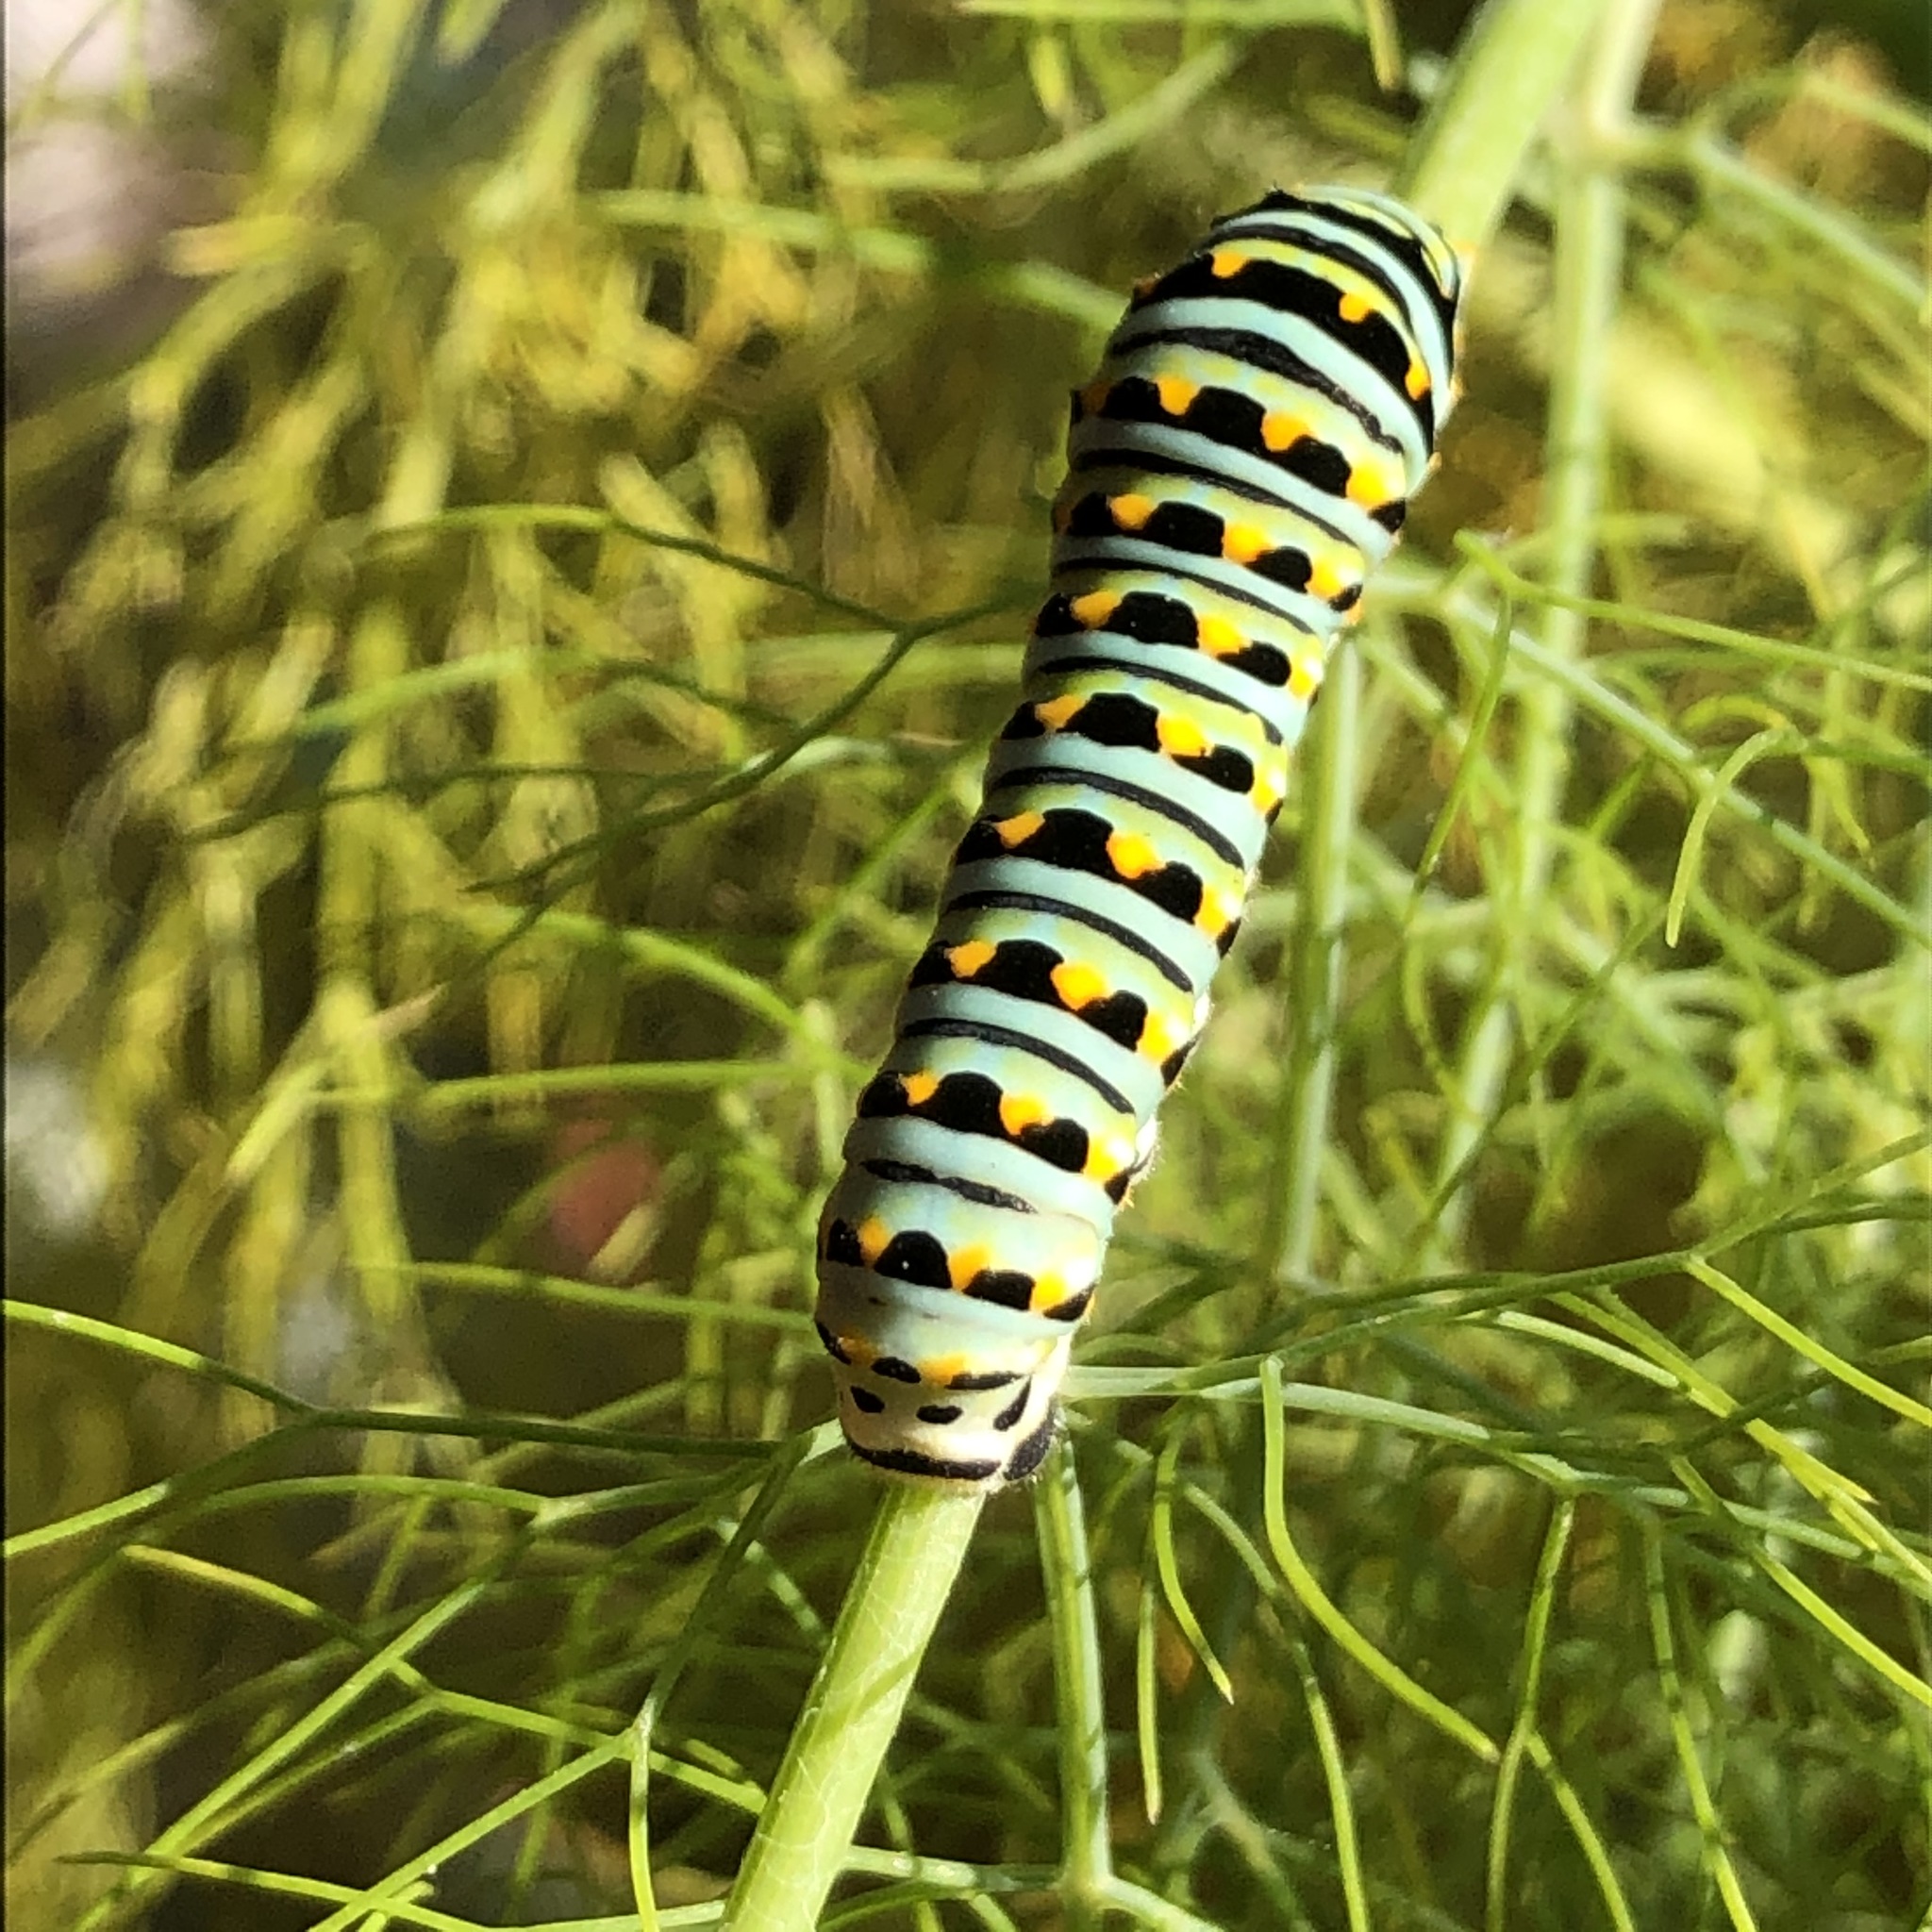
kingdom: Animalia
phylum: Arthropoda
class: Insecta
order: Lepidoptera
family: Papilionidae
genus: Papilio
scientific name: Papilio zelicaon
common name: Anise swallowtail
